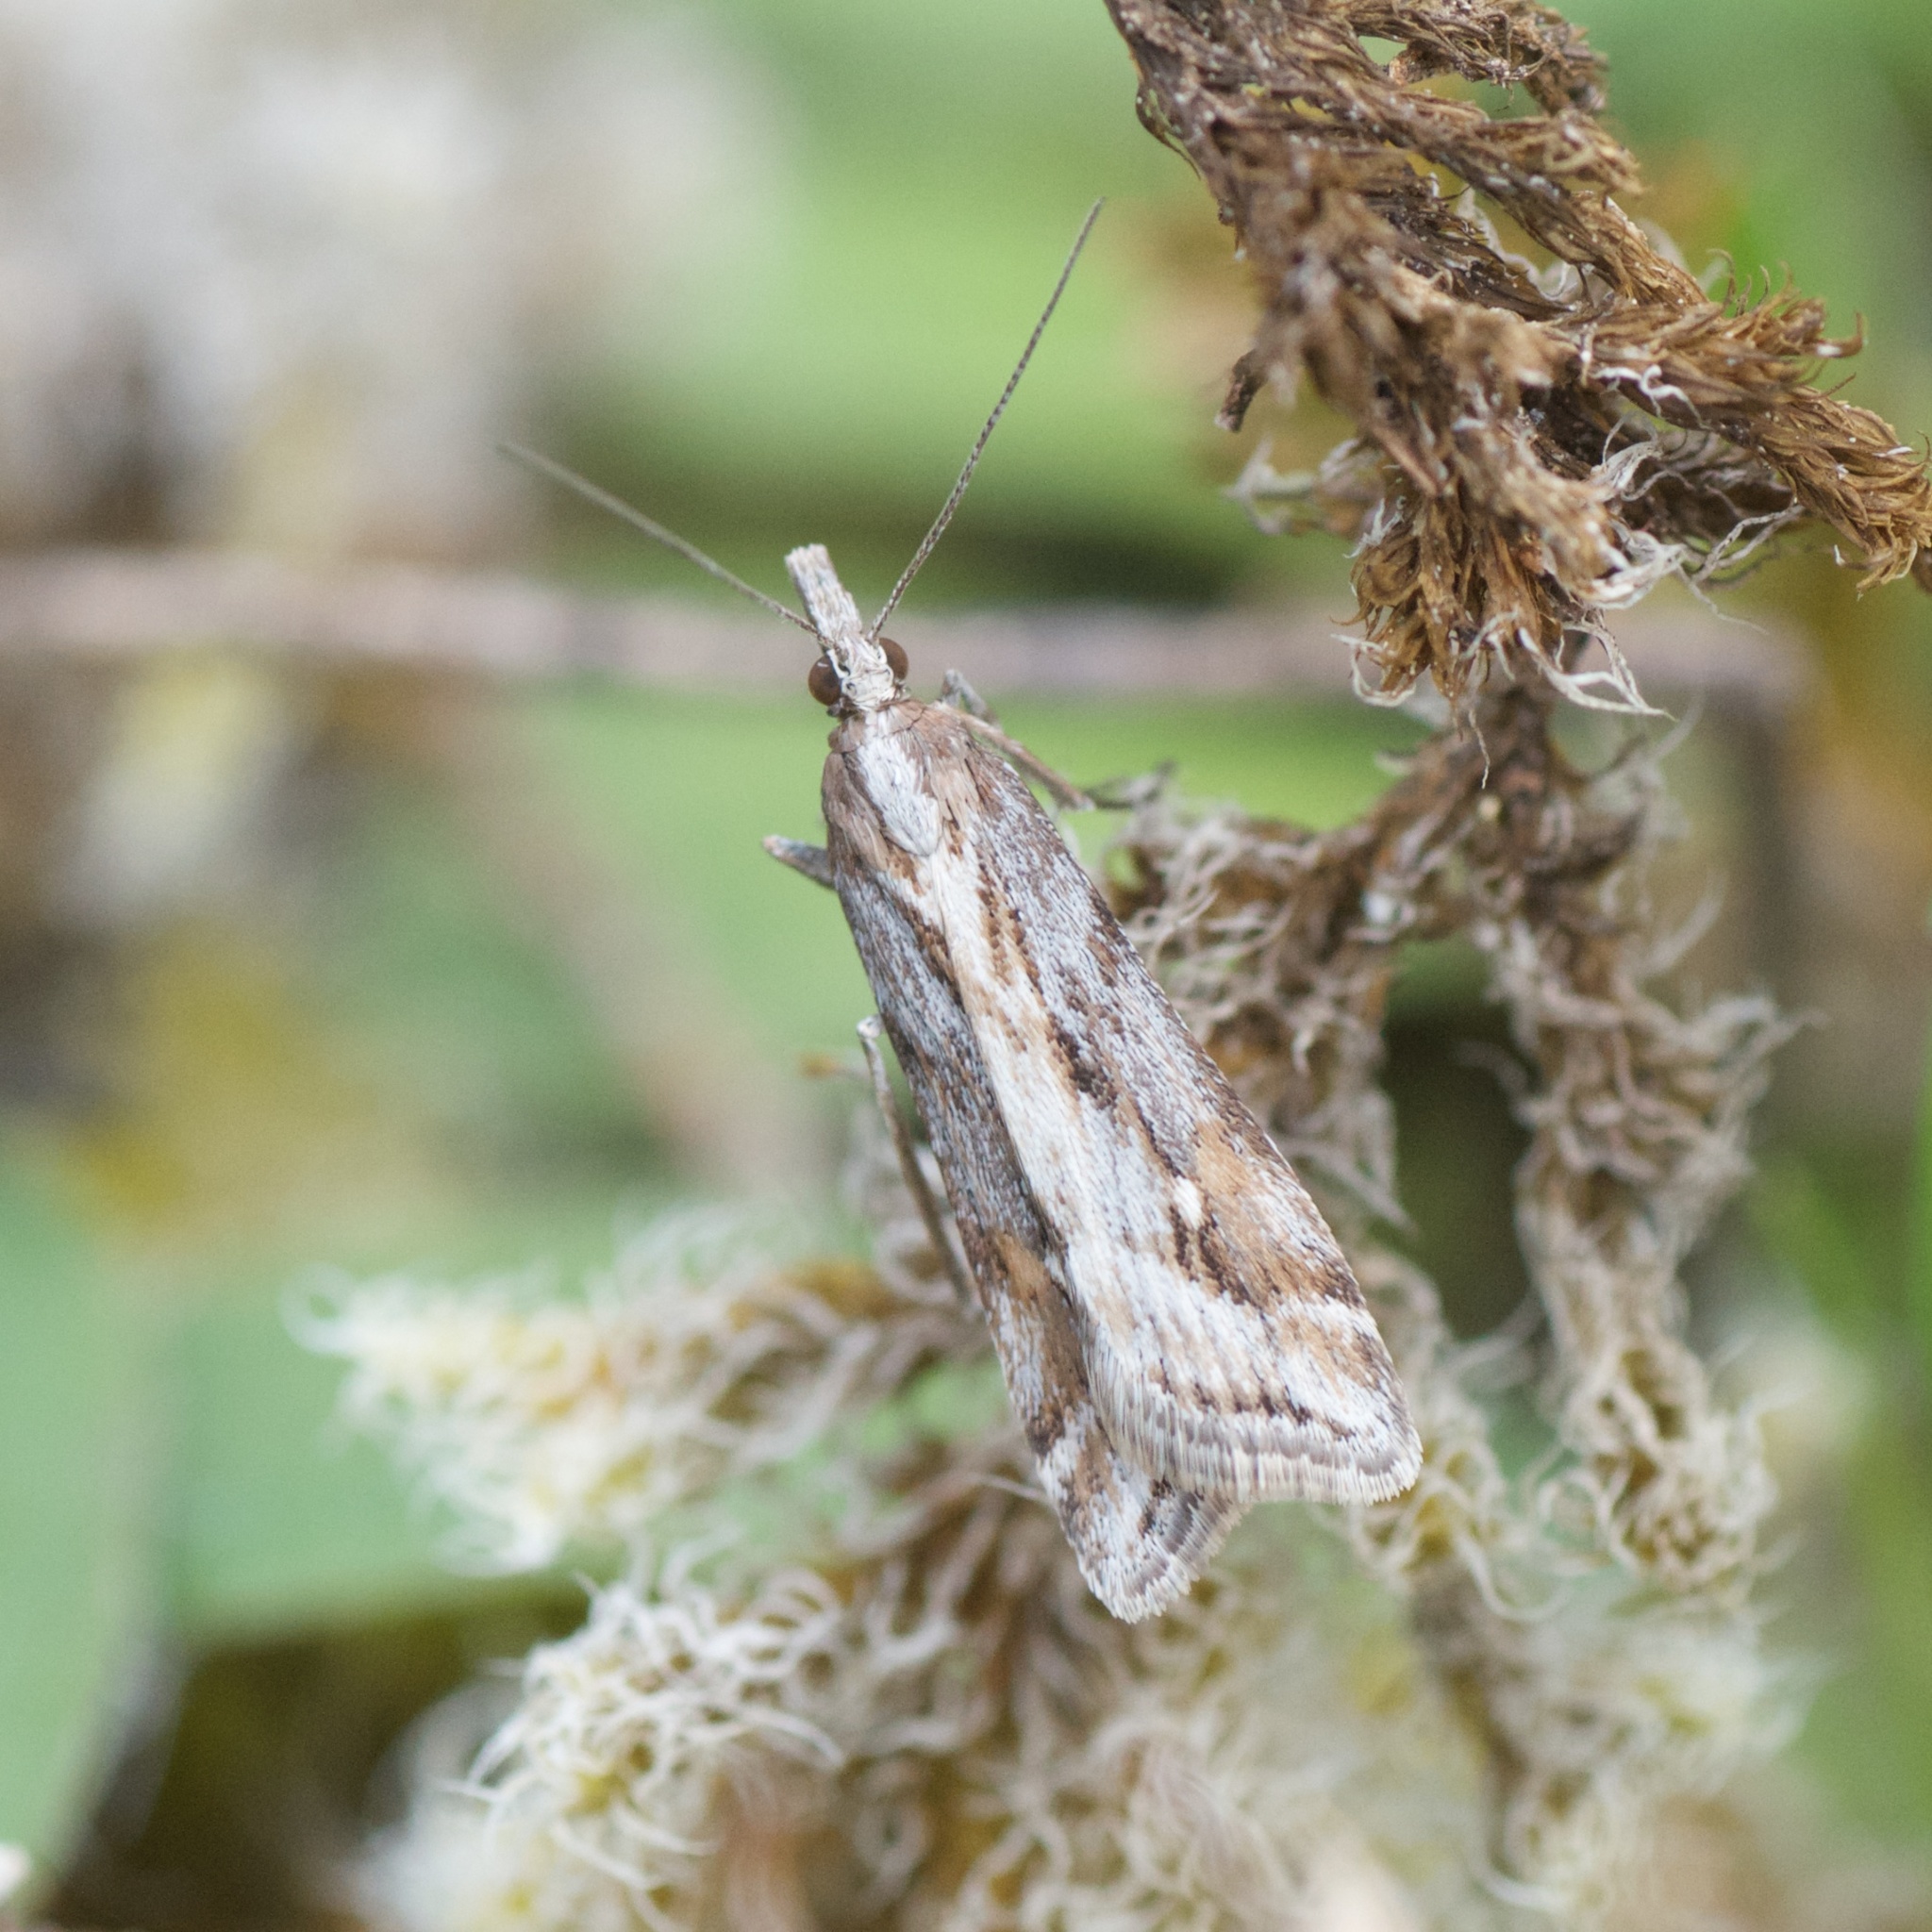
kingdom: Animalia
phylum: Arthropoda
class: Insecta
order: Lepidoptera
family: Crambidae
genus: Scoparia
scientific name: Scoparia exilis
